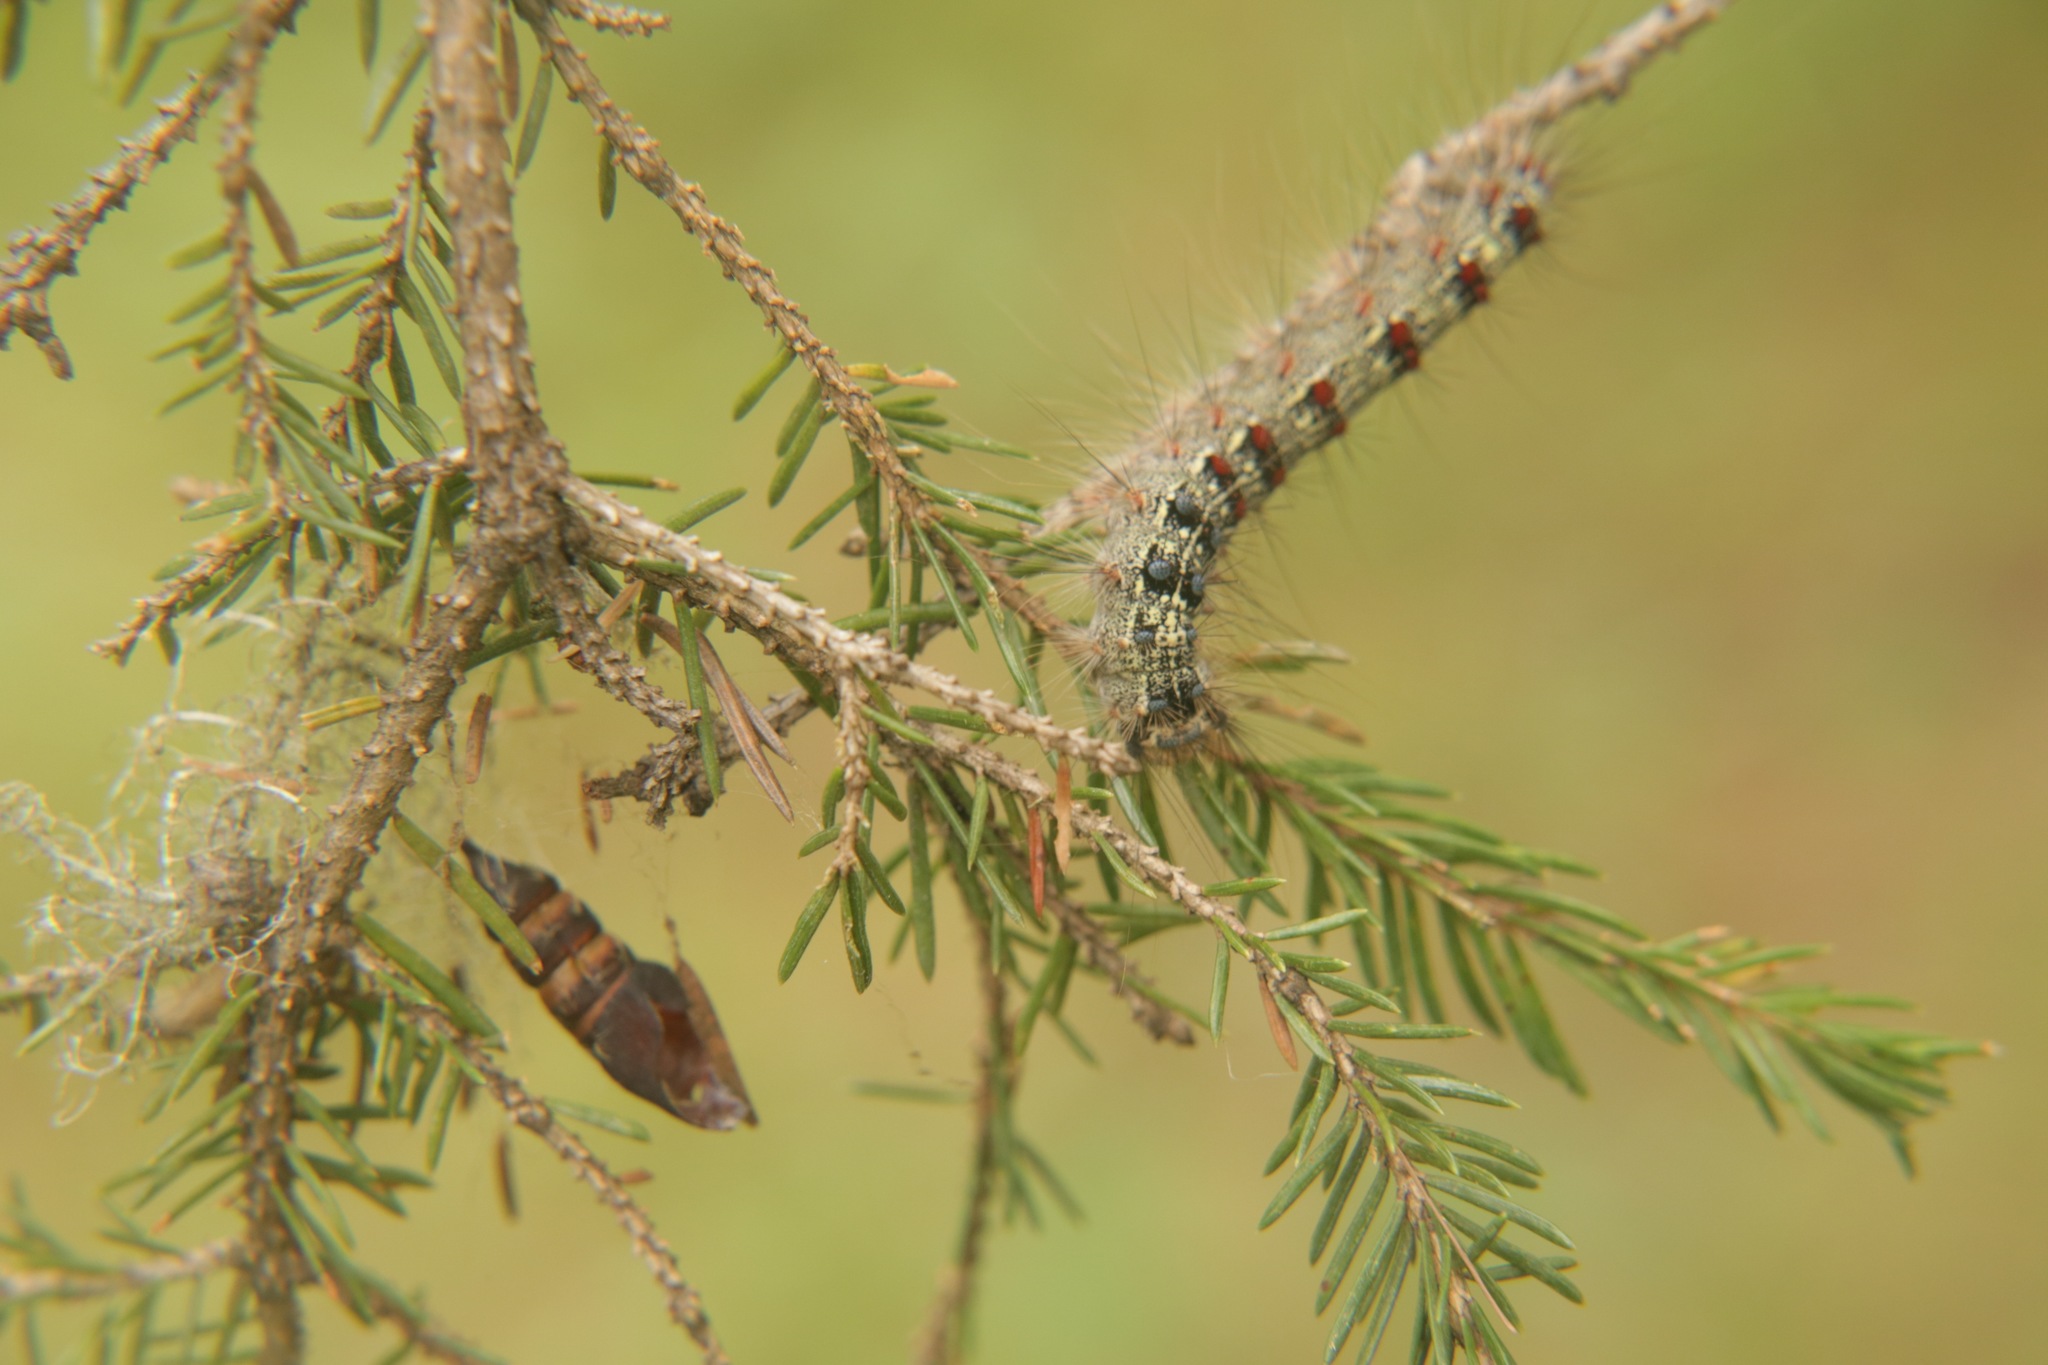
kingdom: Animalia
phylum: Arthropoda
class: Insecta
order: Lepidoptera
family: Erebidae
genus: Lymantria
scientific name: Lymantria dispar
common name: Gypsy moth
